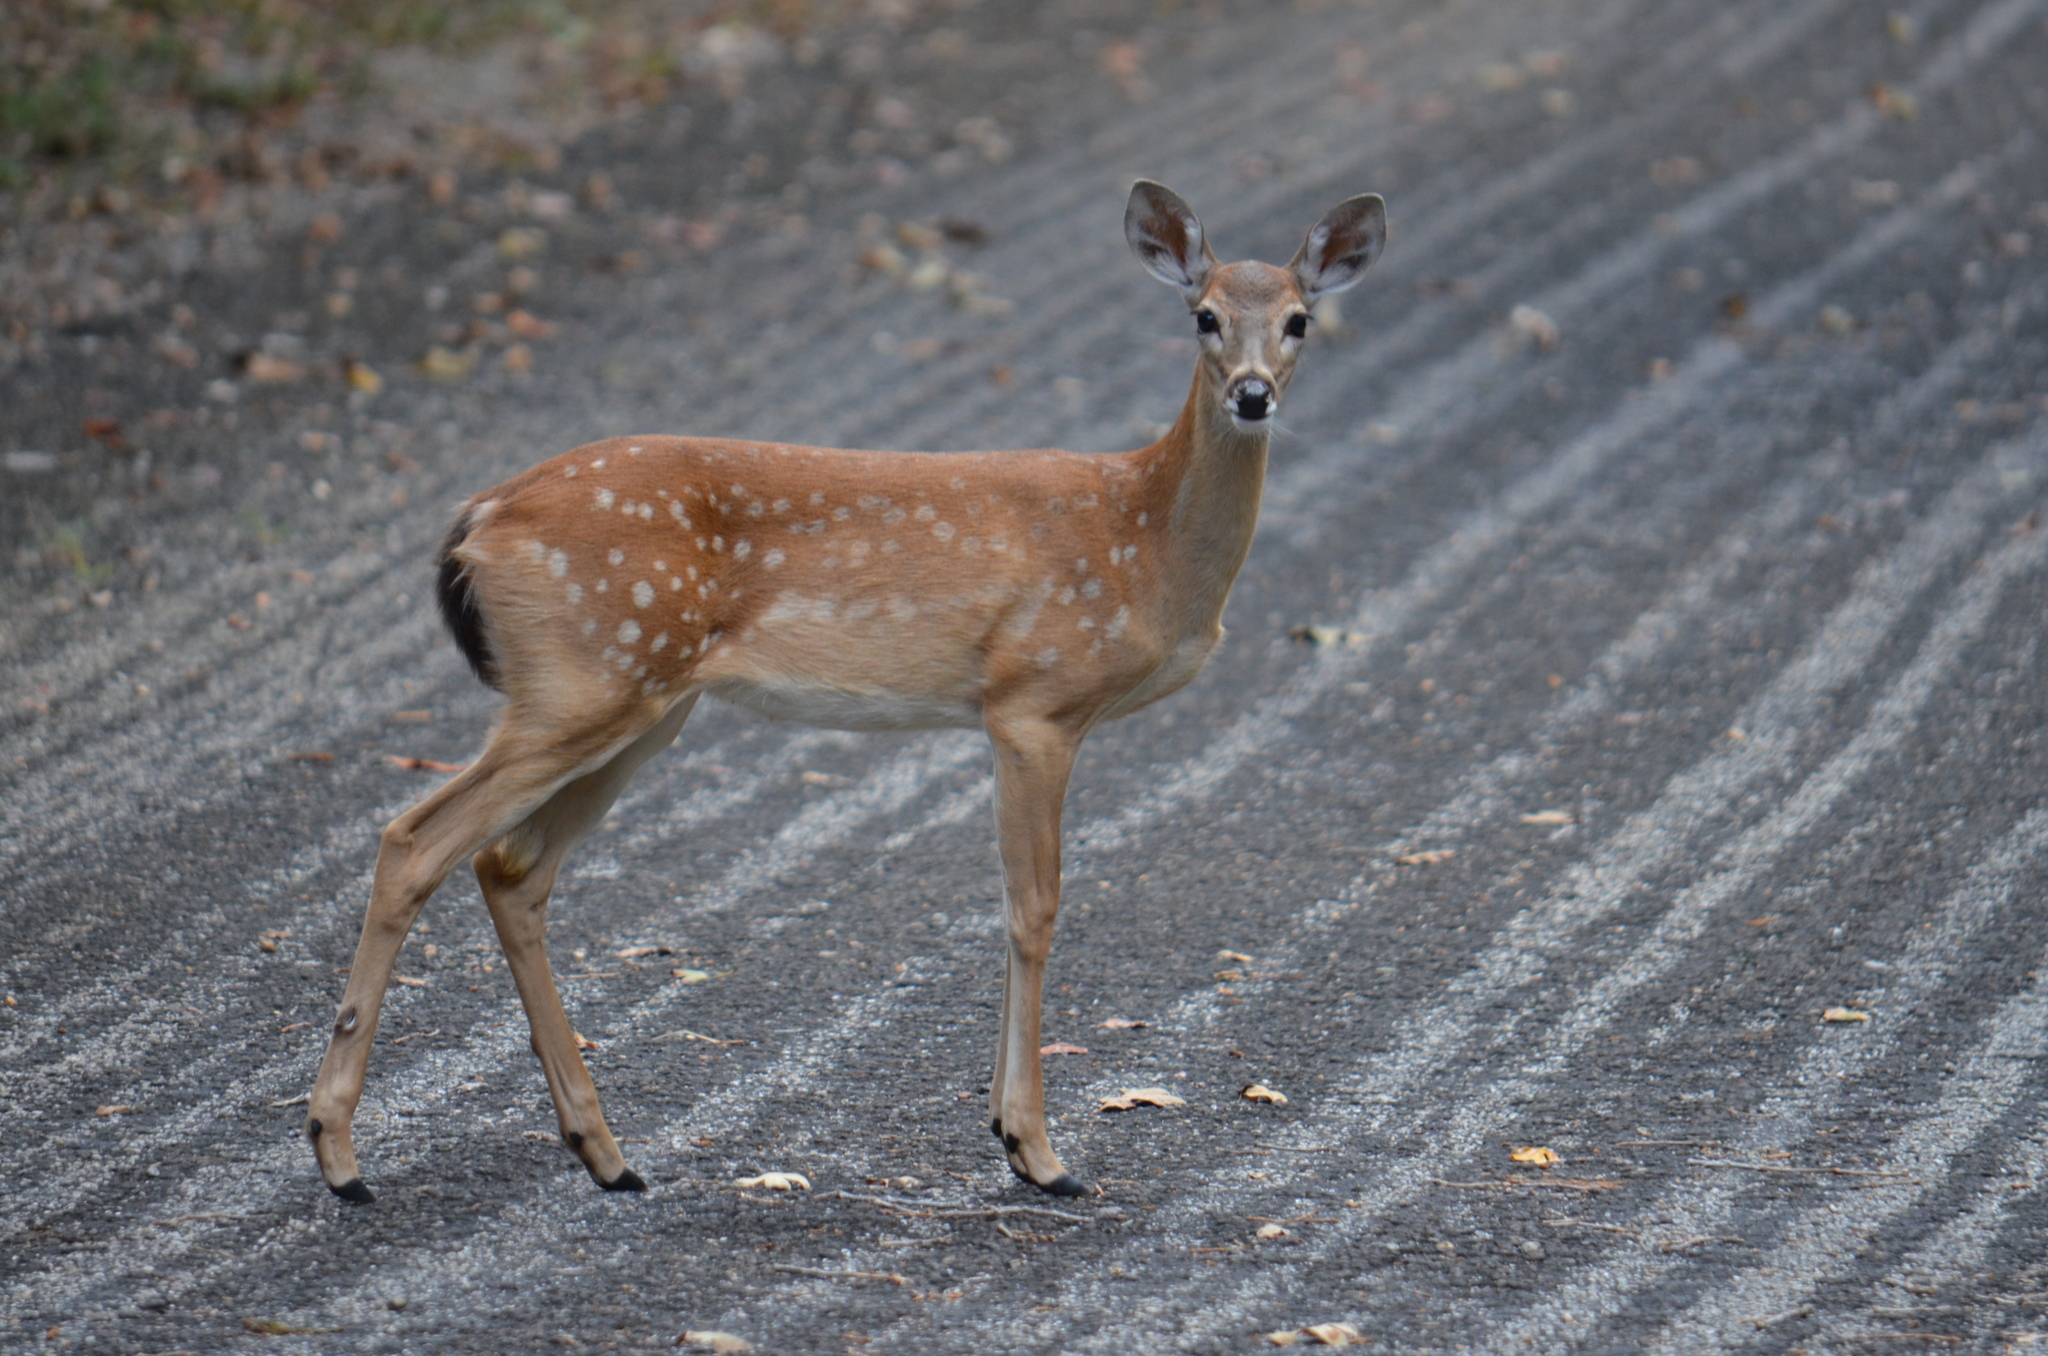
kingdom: Animalia
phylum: Chordata
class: Mammalia
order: Artiodactyla
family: Cervidae
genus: Odocoileus
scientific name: Odocoileus virginianus
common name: White-tailed deer
